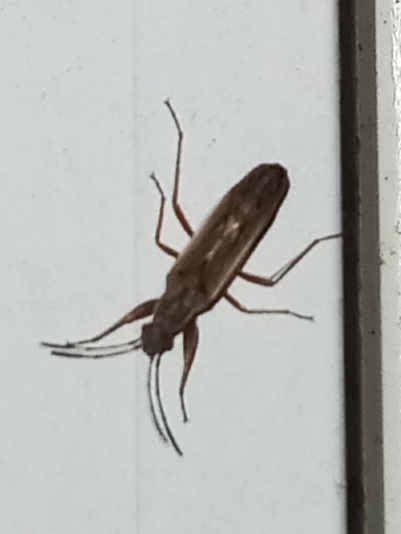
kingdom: Animalia
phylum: Arthropoda
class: Insecta
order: Hemiptera
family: Rhyparochromidae
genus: Paromius
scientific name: Paromius longulus
